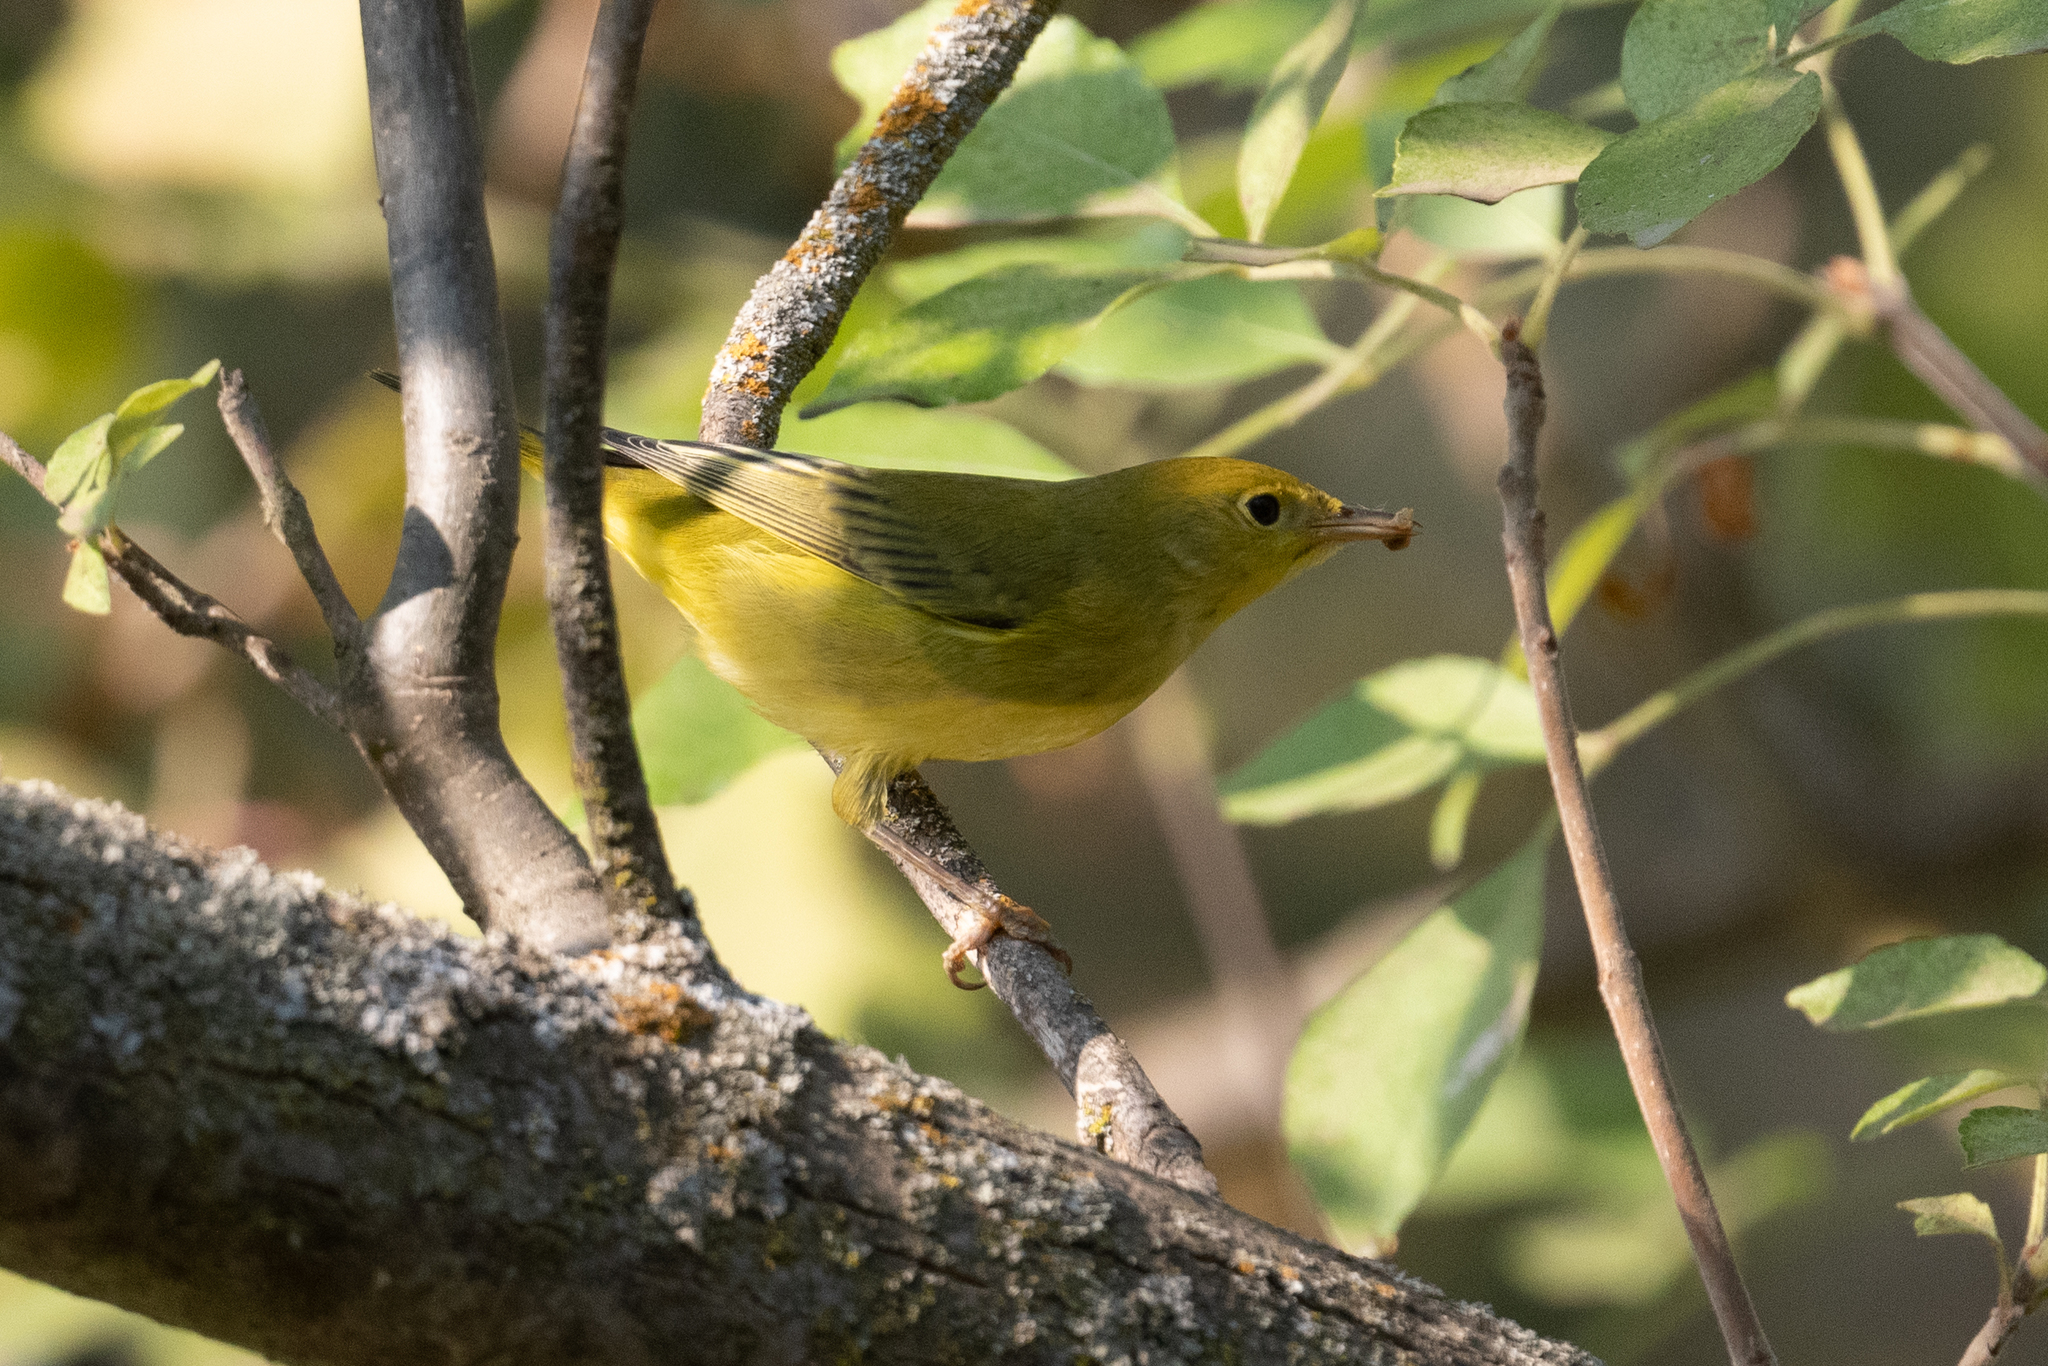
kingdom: Animalia
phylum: Chordata
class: Aves
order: Passeriformes
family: Parulidae
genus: Setophaga
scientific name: Setophaga petechia
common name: Yellow warbler
